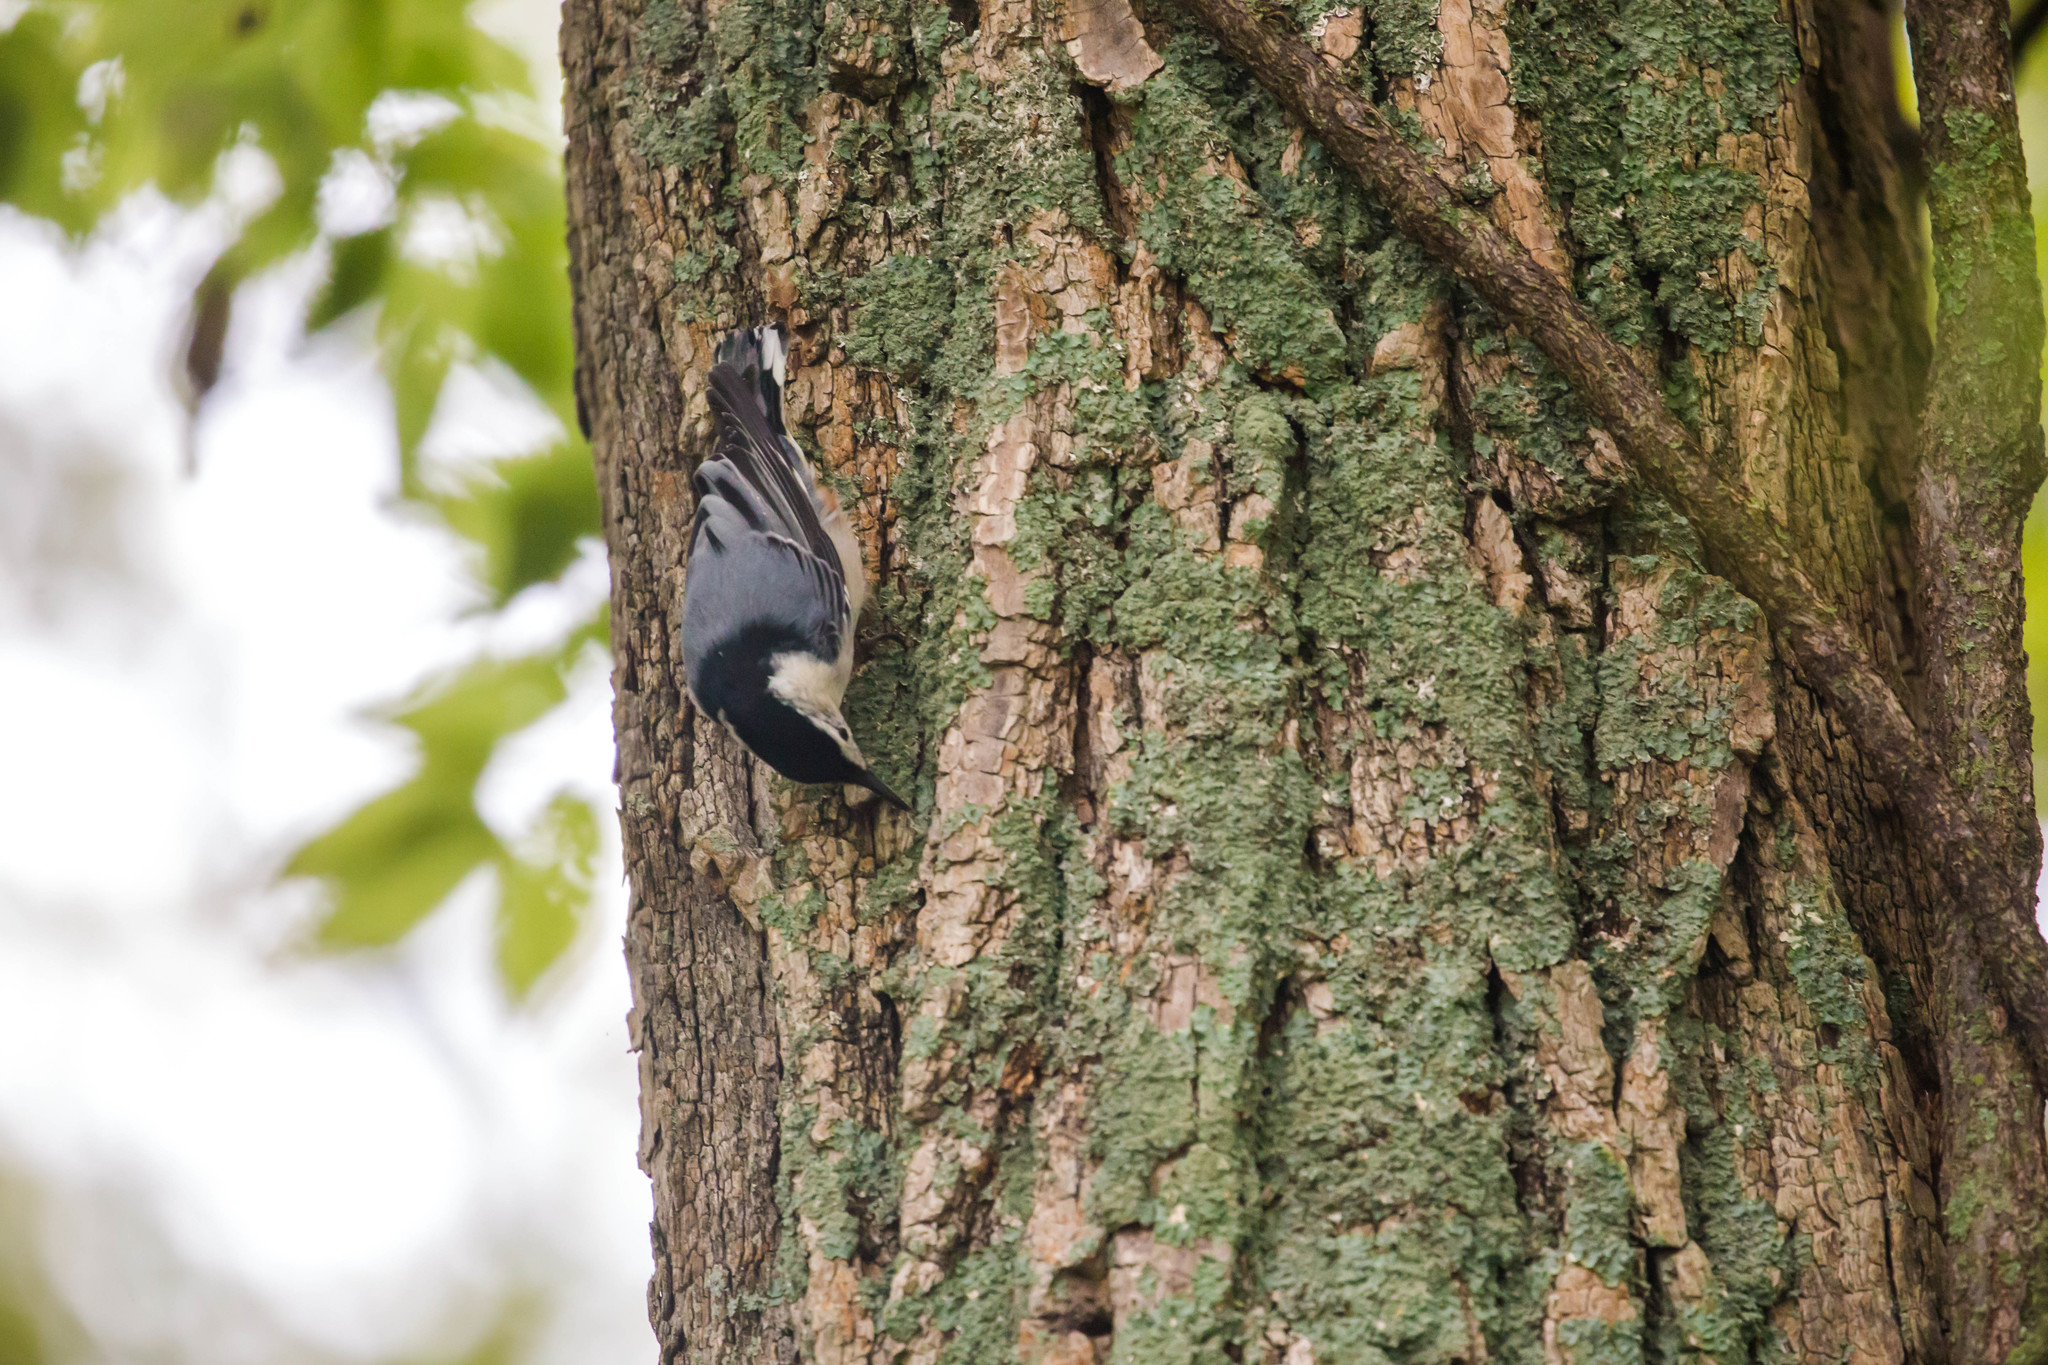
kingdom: Animalia
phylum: Chordata
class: Aves
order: Passeriformes
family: Sittidae
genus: Sitta
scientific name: Sitta carolinensis
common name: White-breasted nuthatch
